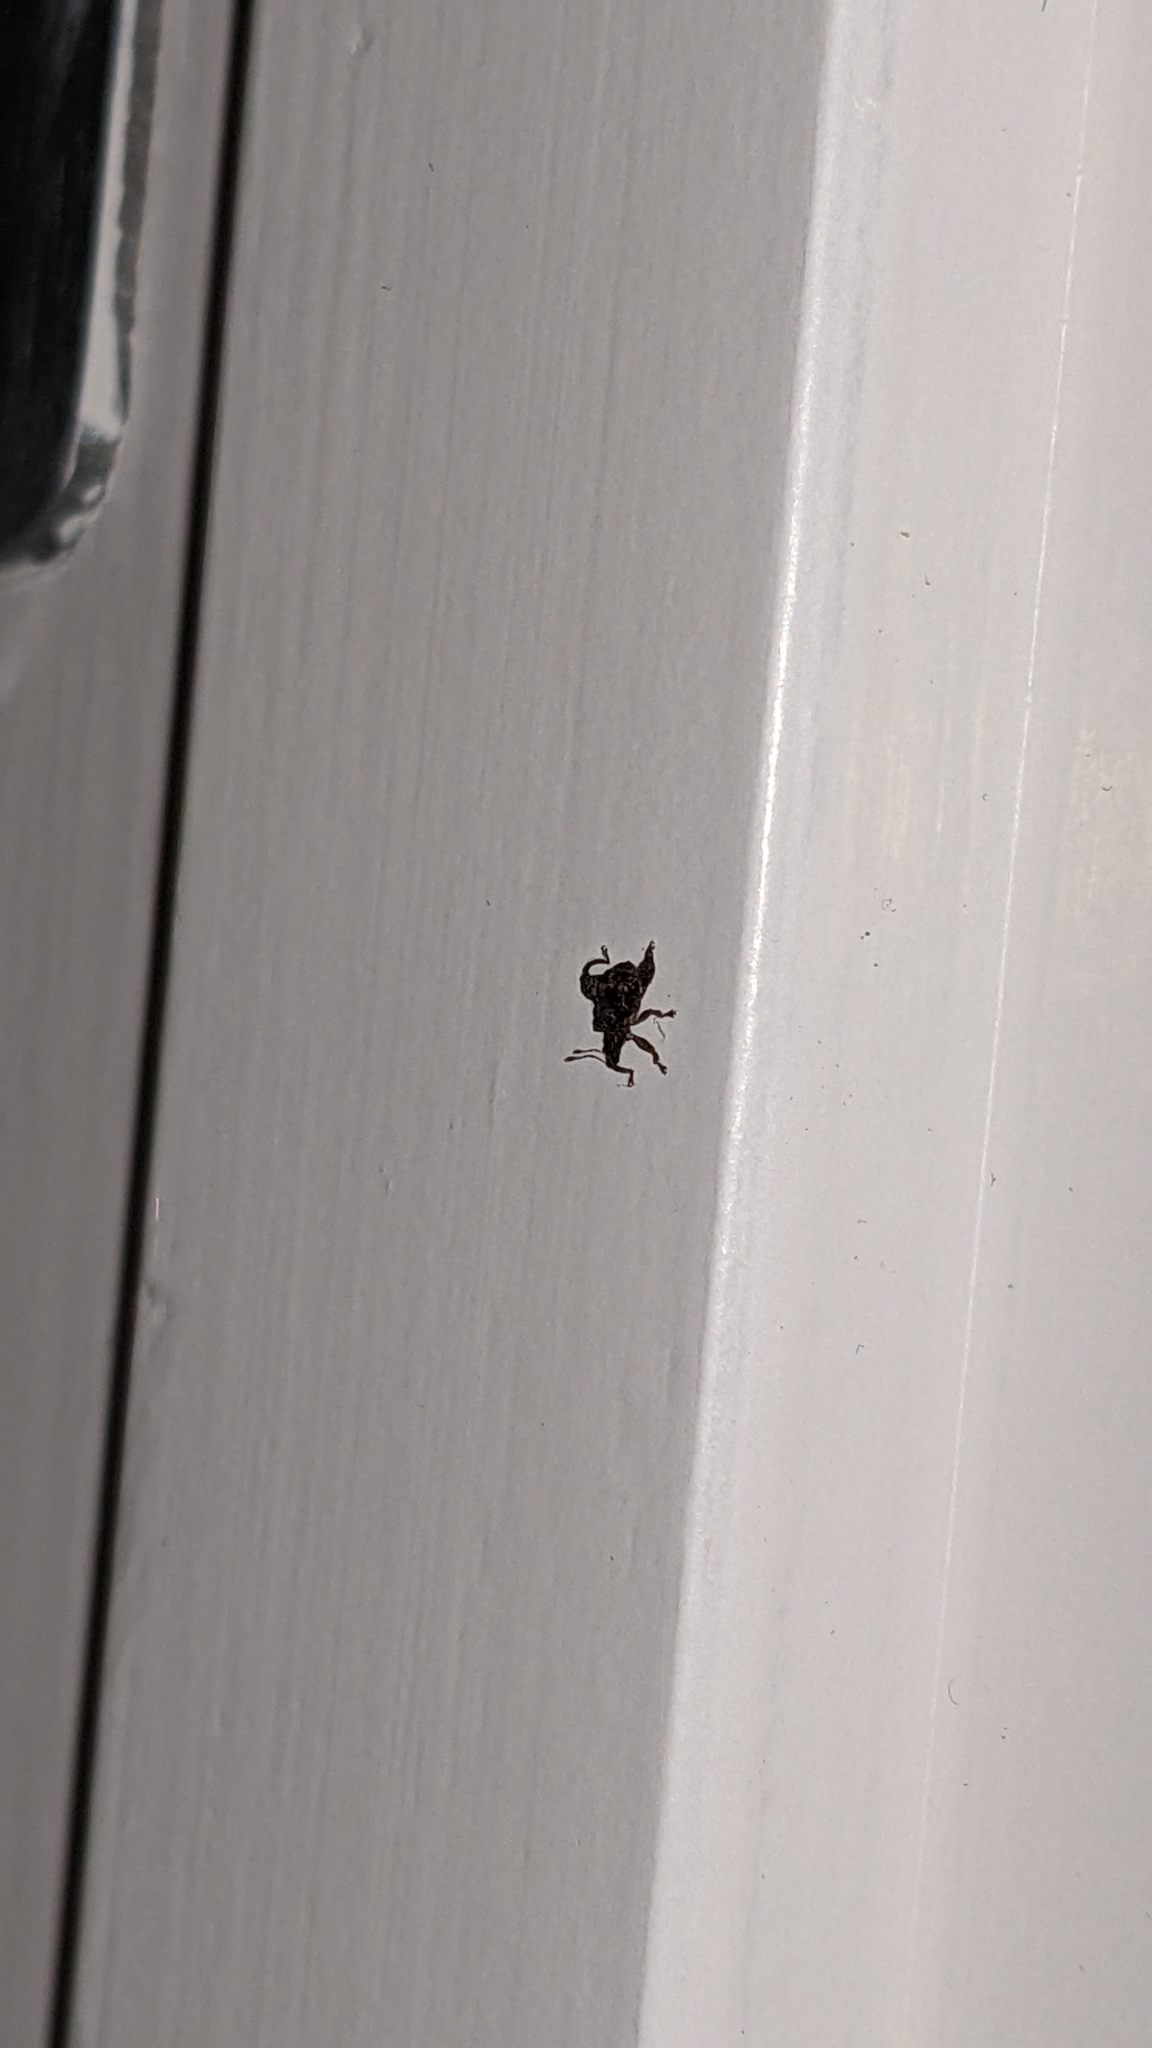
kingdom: Animalia
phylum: Arthropoda
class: Insecta
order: Coleoptera
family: Curculionidae
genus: Pactola
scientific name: Pactola variabilis
